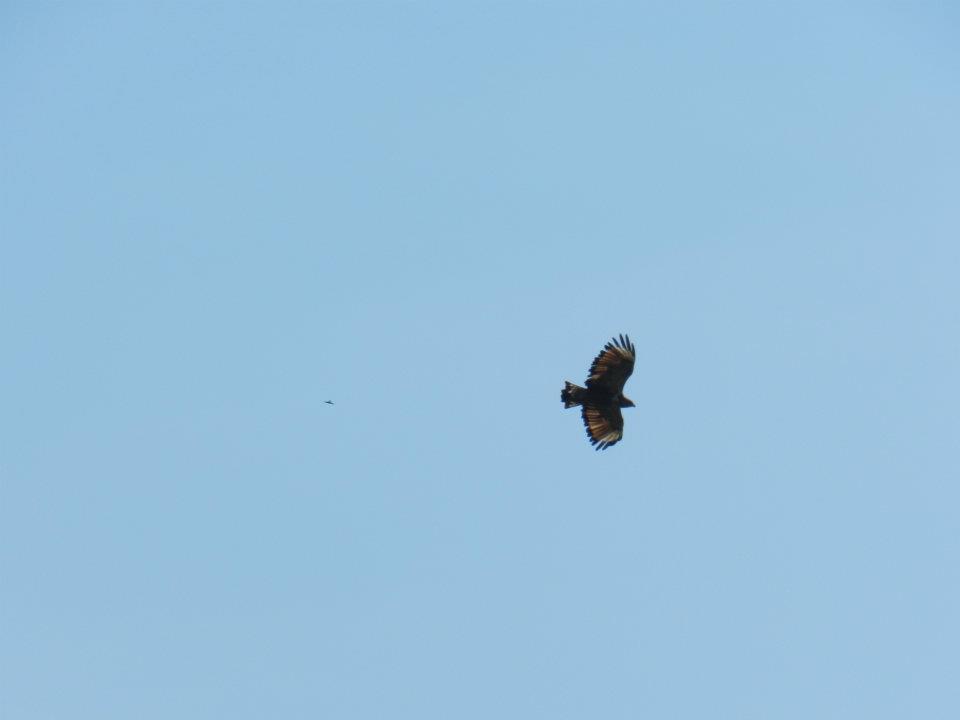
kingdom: Animalia
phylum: Chordata
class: Aves
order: Accipitriformes
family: Accipitridae
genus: Buteogallus
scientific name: Buteogallus meridionalis
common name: Savanna hawk
